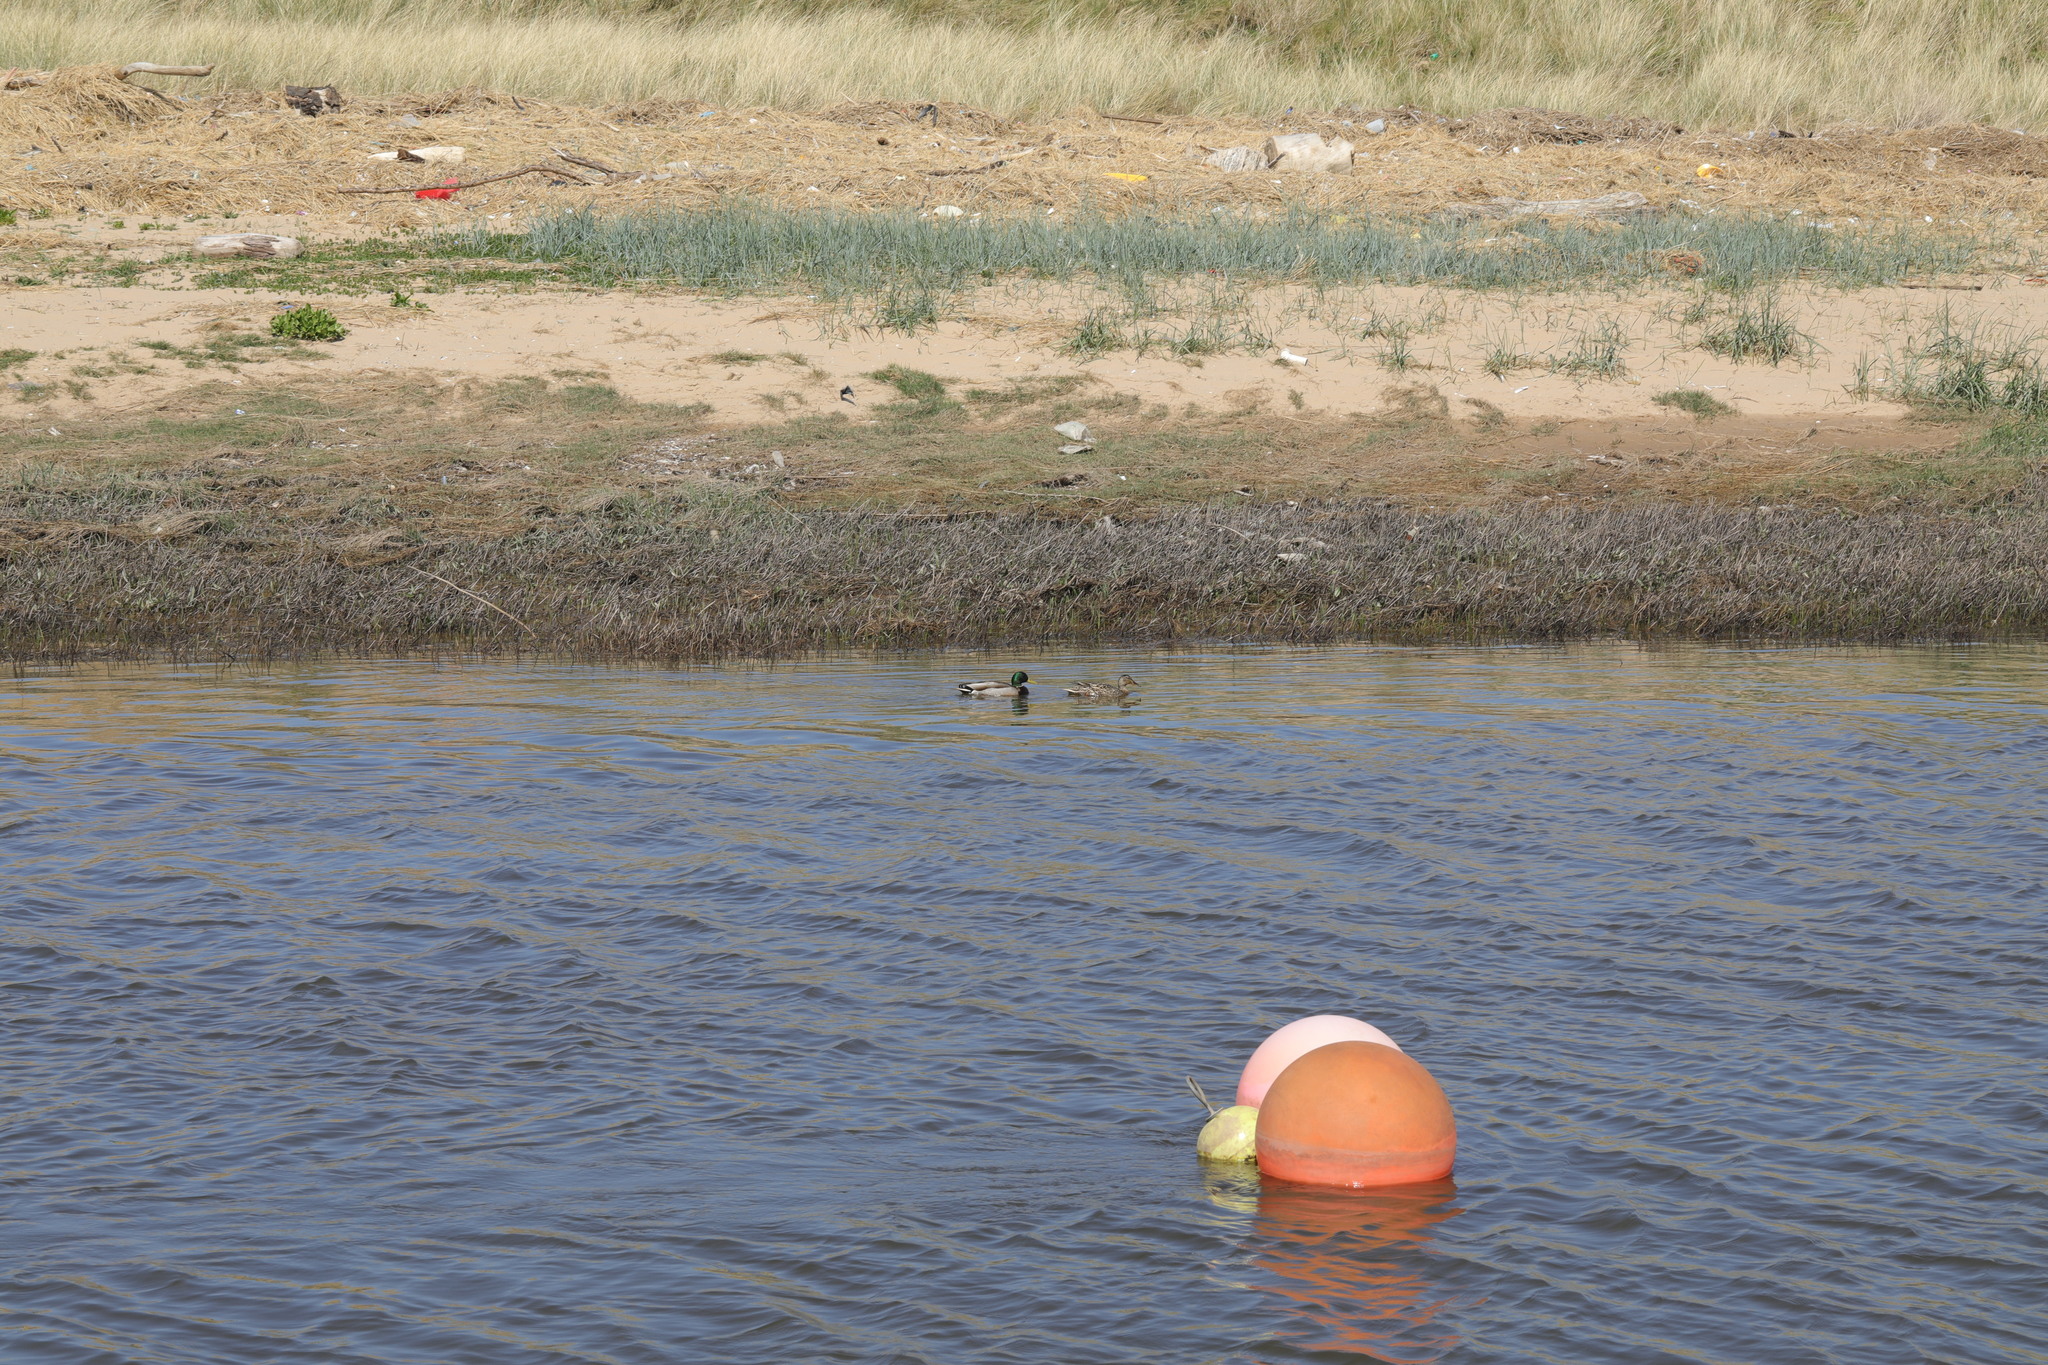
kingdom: Animalia
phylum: Chordata
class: Aves
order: Anseriformes
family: Anatidae
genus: Anas
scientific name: Anas platyrhynchos
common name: Mallard
